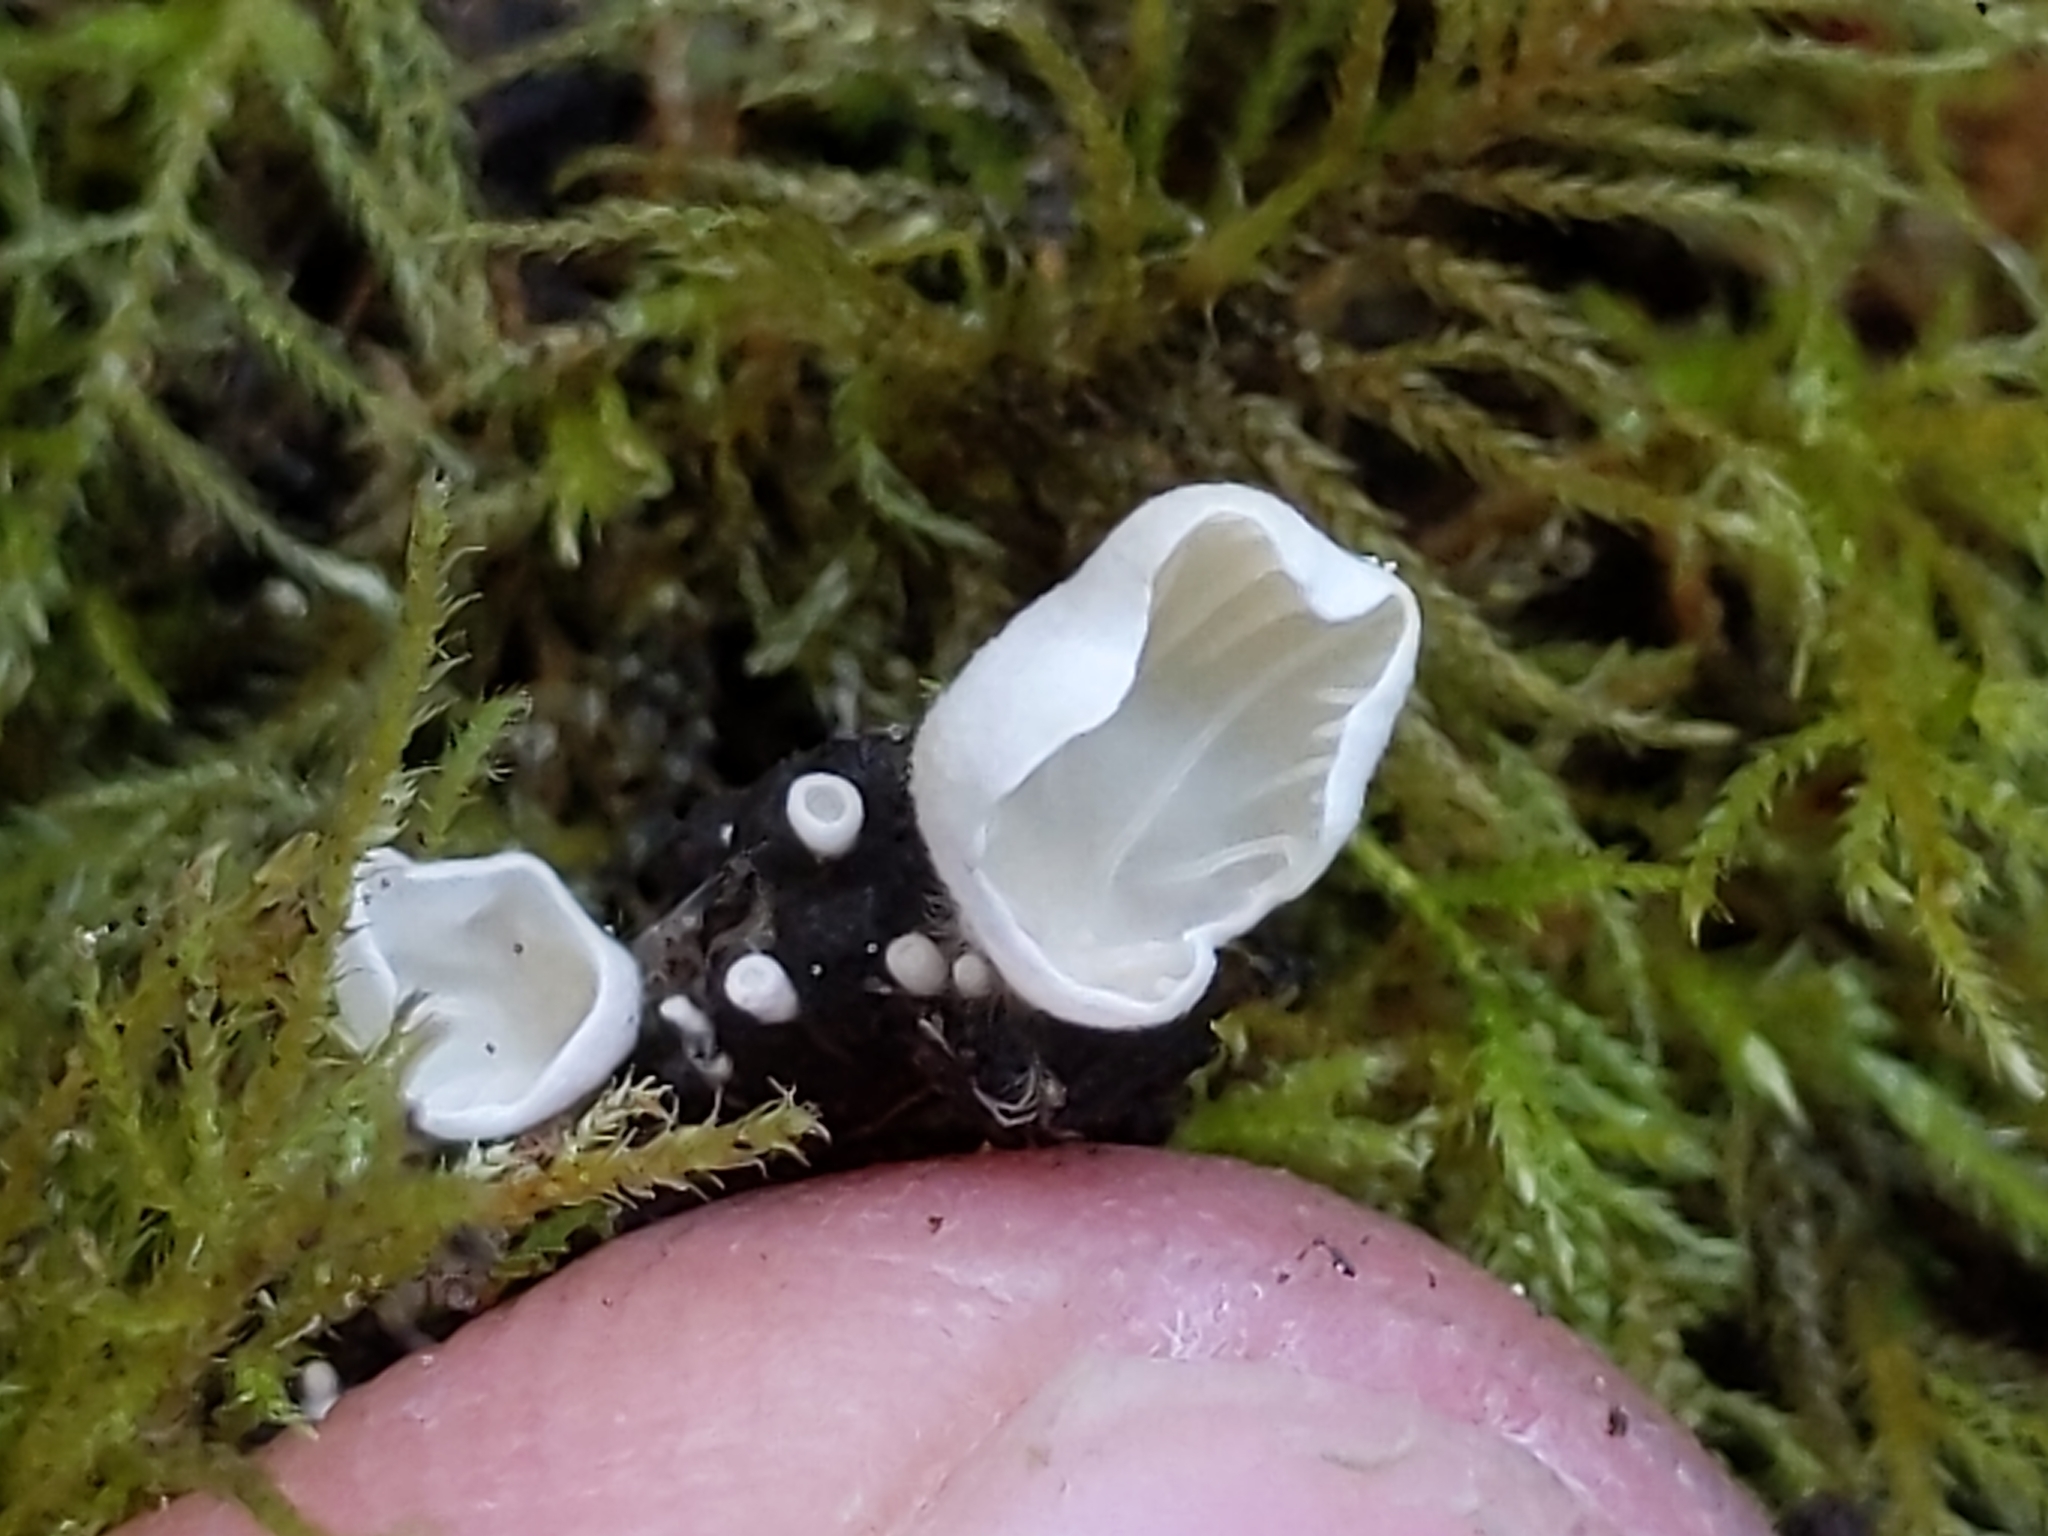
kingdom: Fungi
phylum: Basidiomycota
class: Agaricomycetes
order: Agaricales
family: Tricholomataceae
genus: Rimbachia
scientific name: Rimbachia bryophila
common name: Veined mossear
